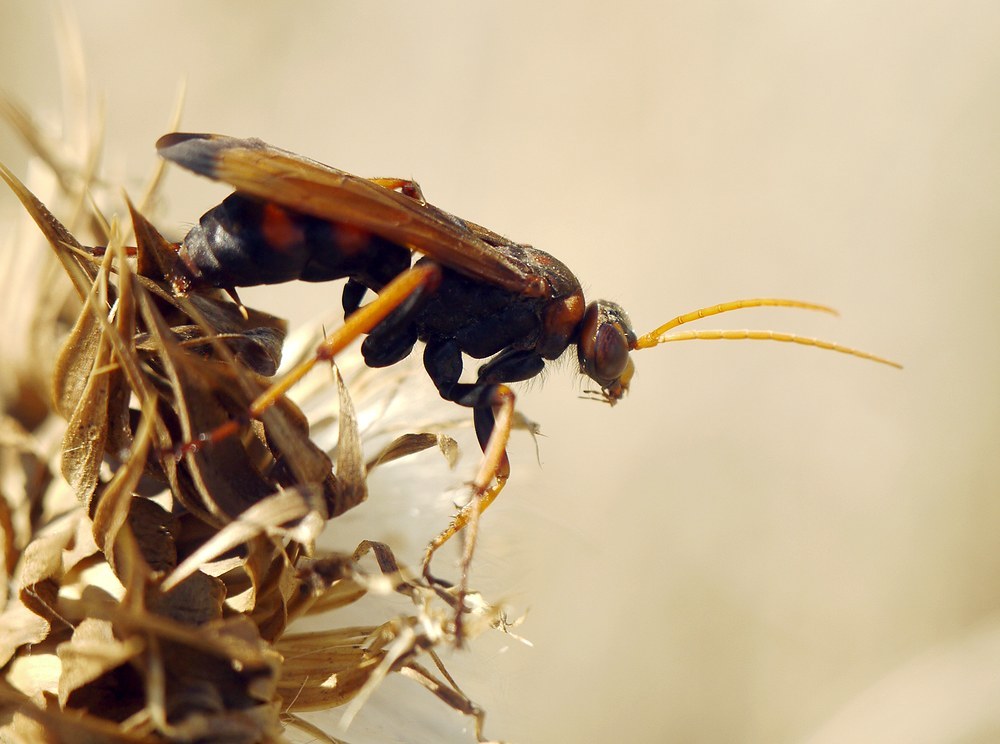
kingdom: Animalia
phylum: Arthropoda
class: Insecta
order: Hymenoptera
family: Pompilidae
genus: Cryptocheilus
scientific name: Cryptocheilus rubellus
